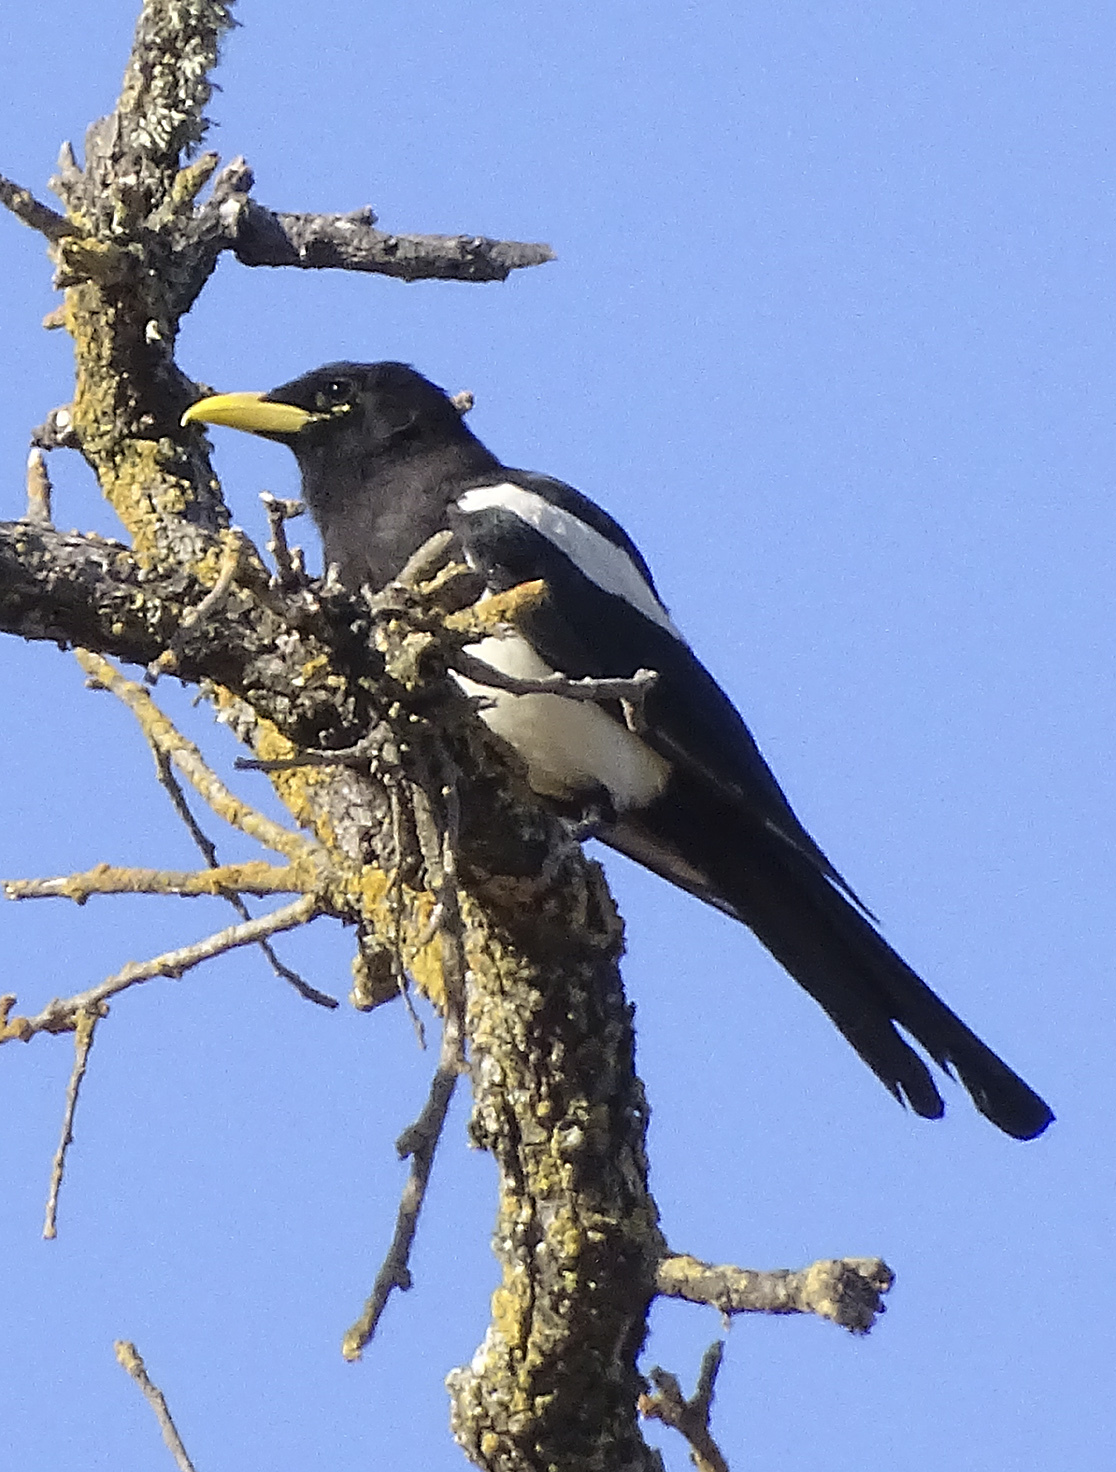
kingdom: Animalia
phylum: Chordata
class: Aves
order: Passeriformes
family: Corvidae
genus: Pica
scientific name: Pica nuttalli
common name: Yellow-billed magpie
